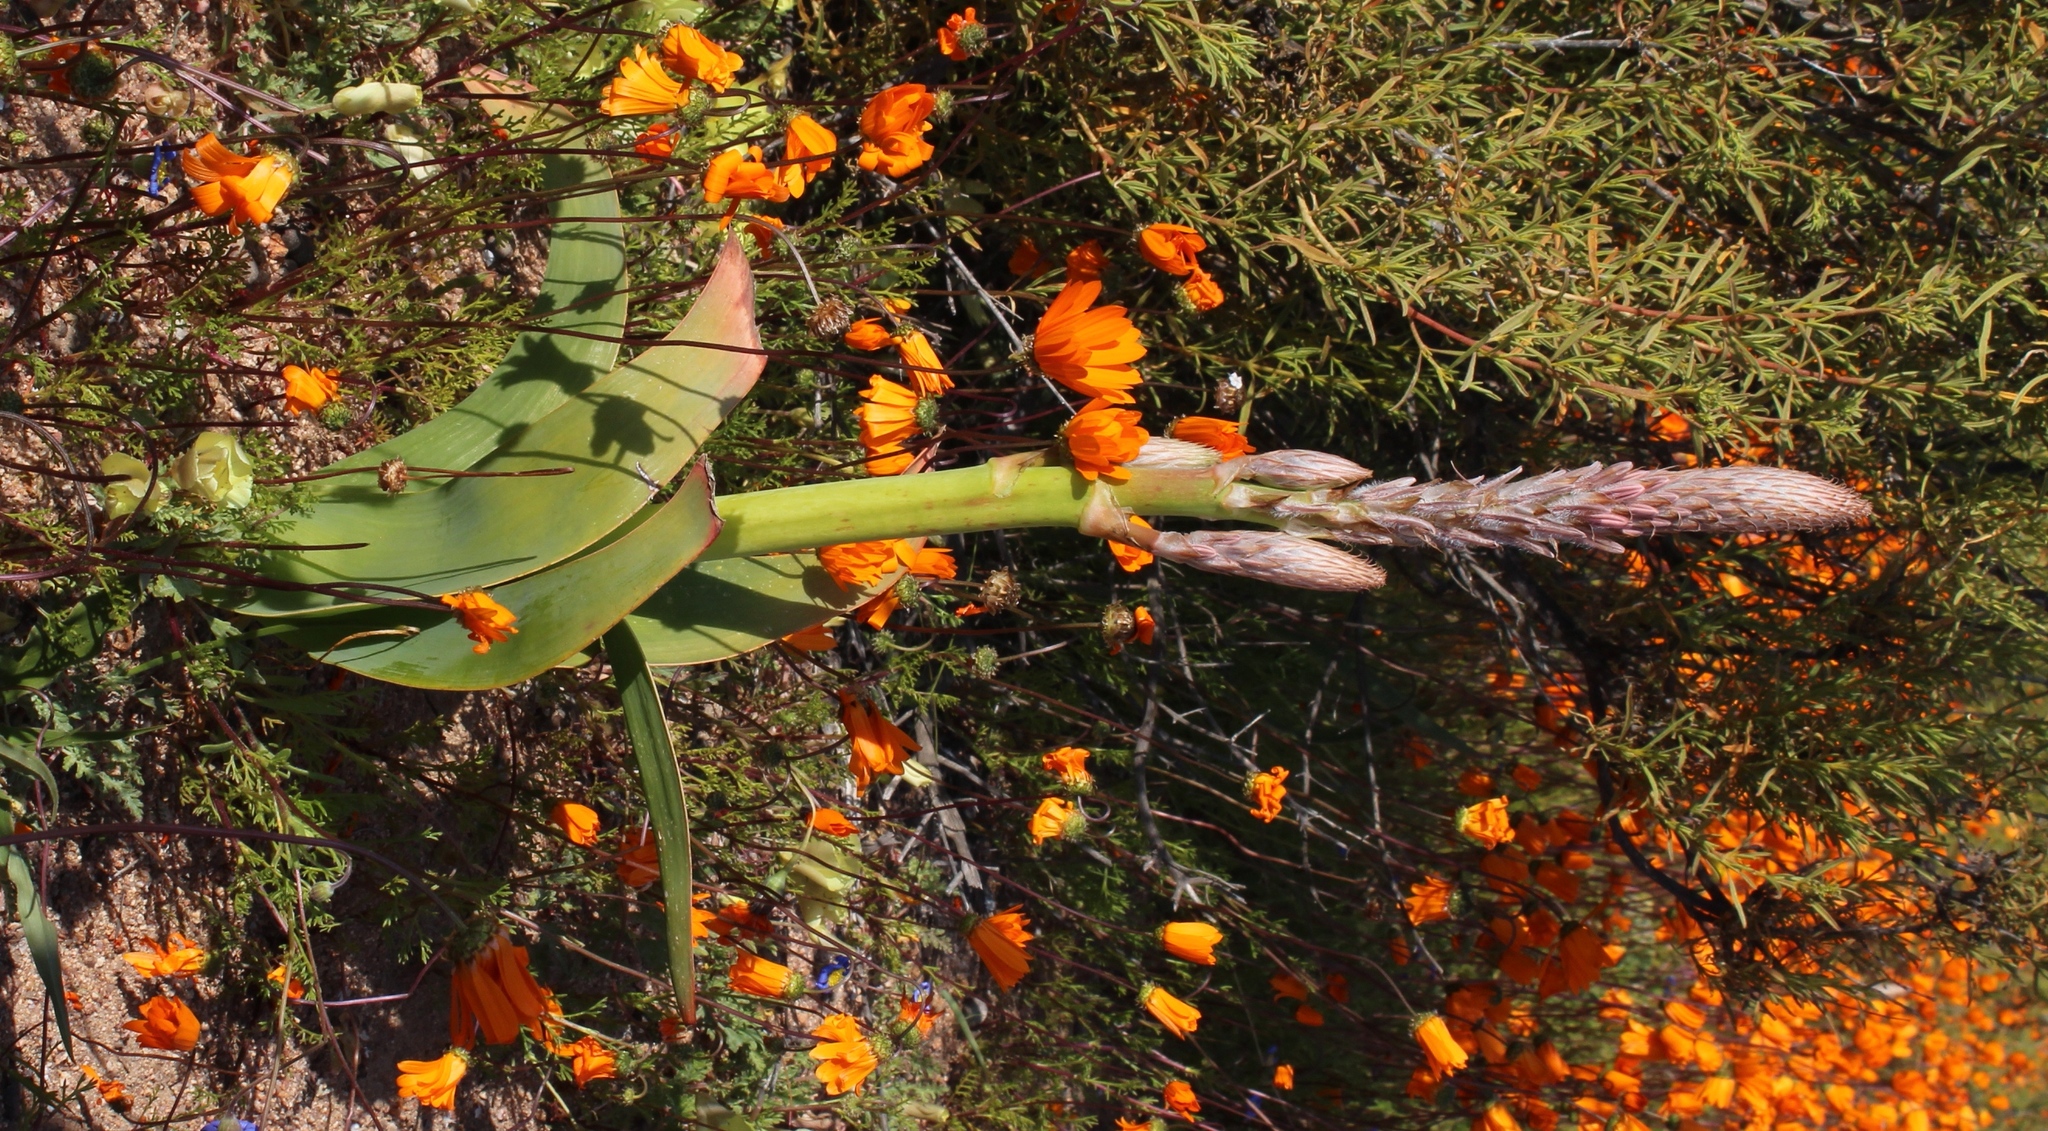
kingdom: Plantae
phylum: Tracheophyta
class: Liliopsida
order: Asparagales
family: Asphodelaceae
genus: Trachyandra
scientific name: Trachyandra falcata
